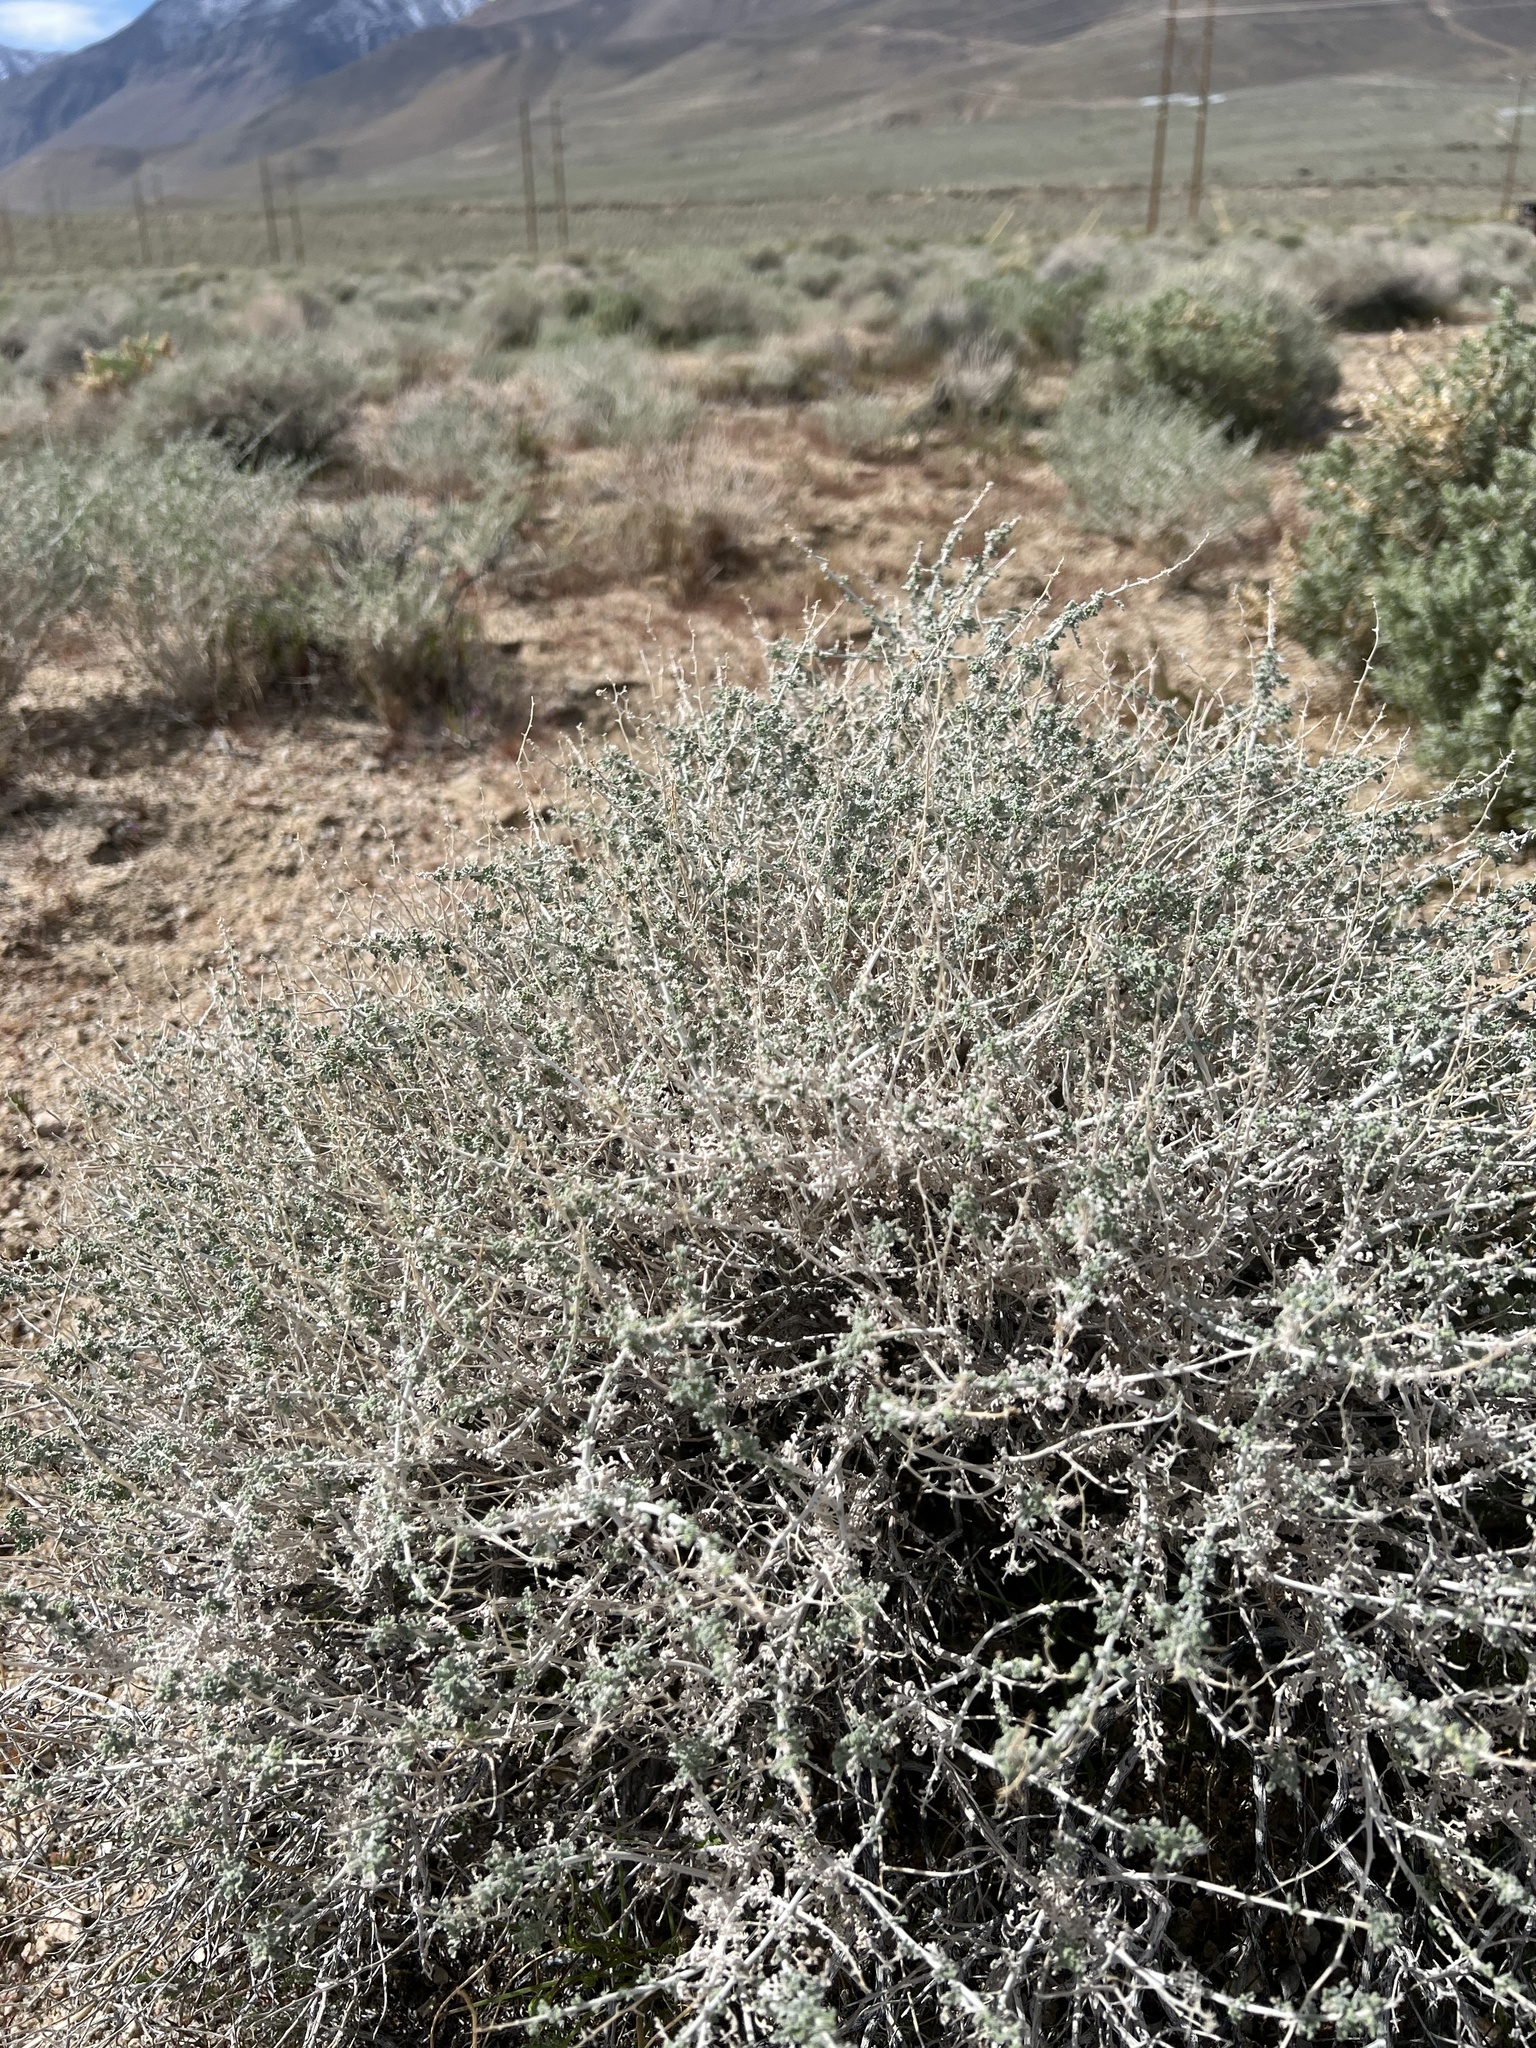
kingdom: Plantae
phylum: Tracheophyta
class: Magnoliopsida
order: Asterales
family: Asteraceae
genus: Ambrosia
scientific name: Ambrosia dumosa
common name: Bur-sage
